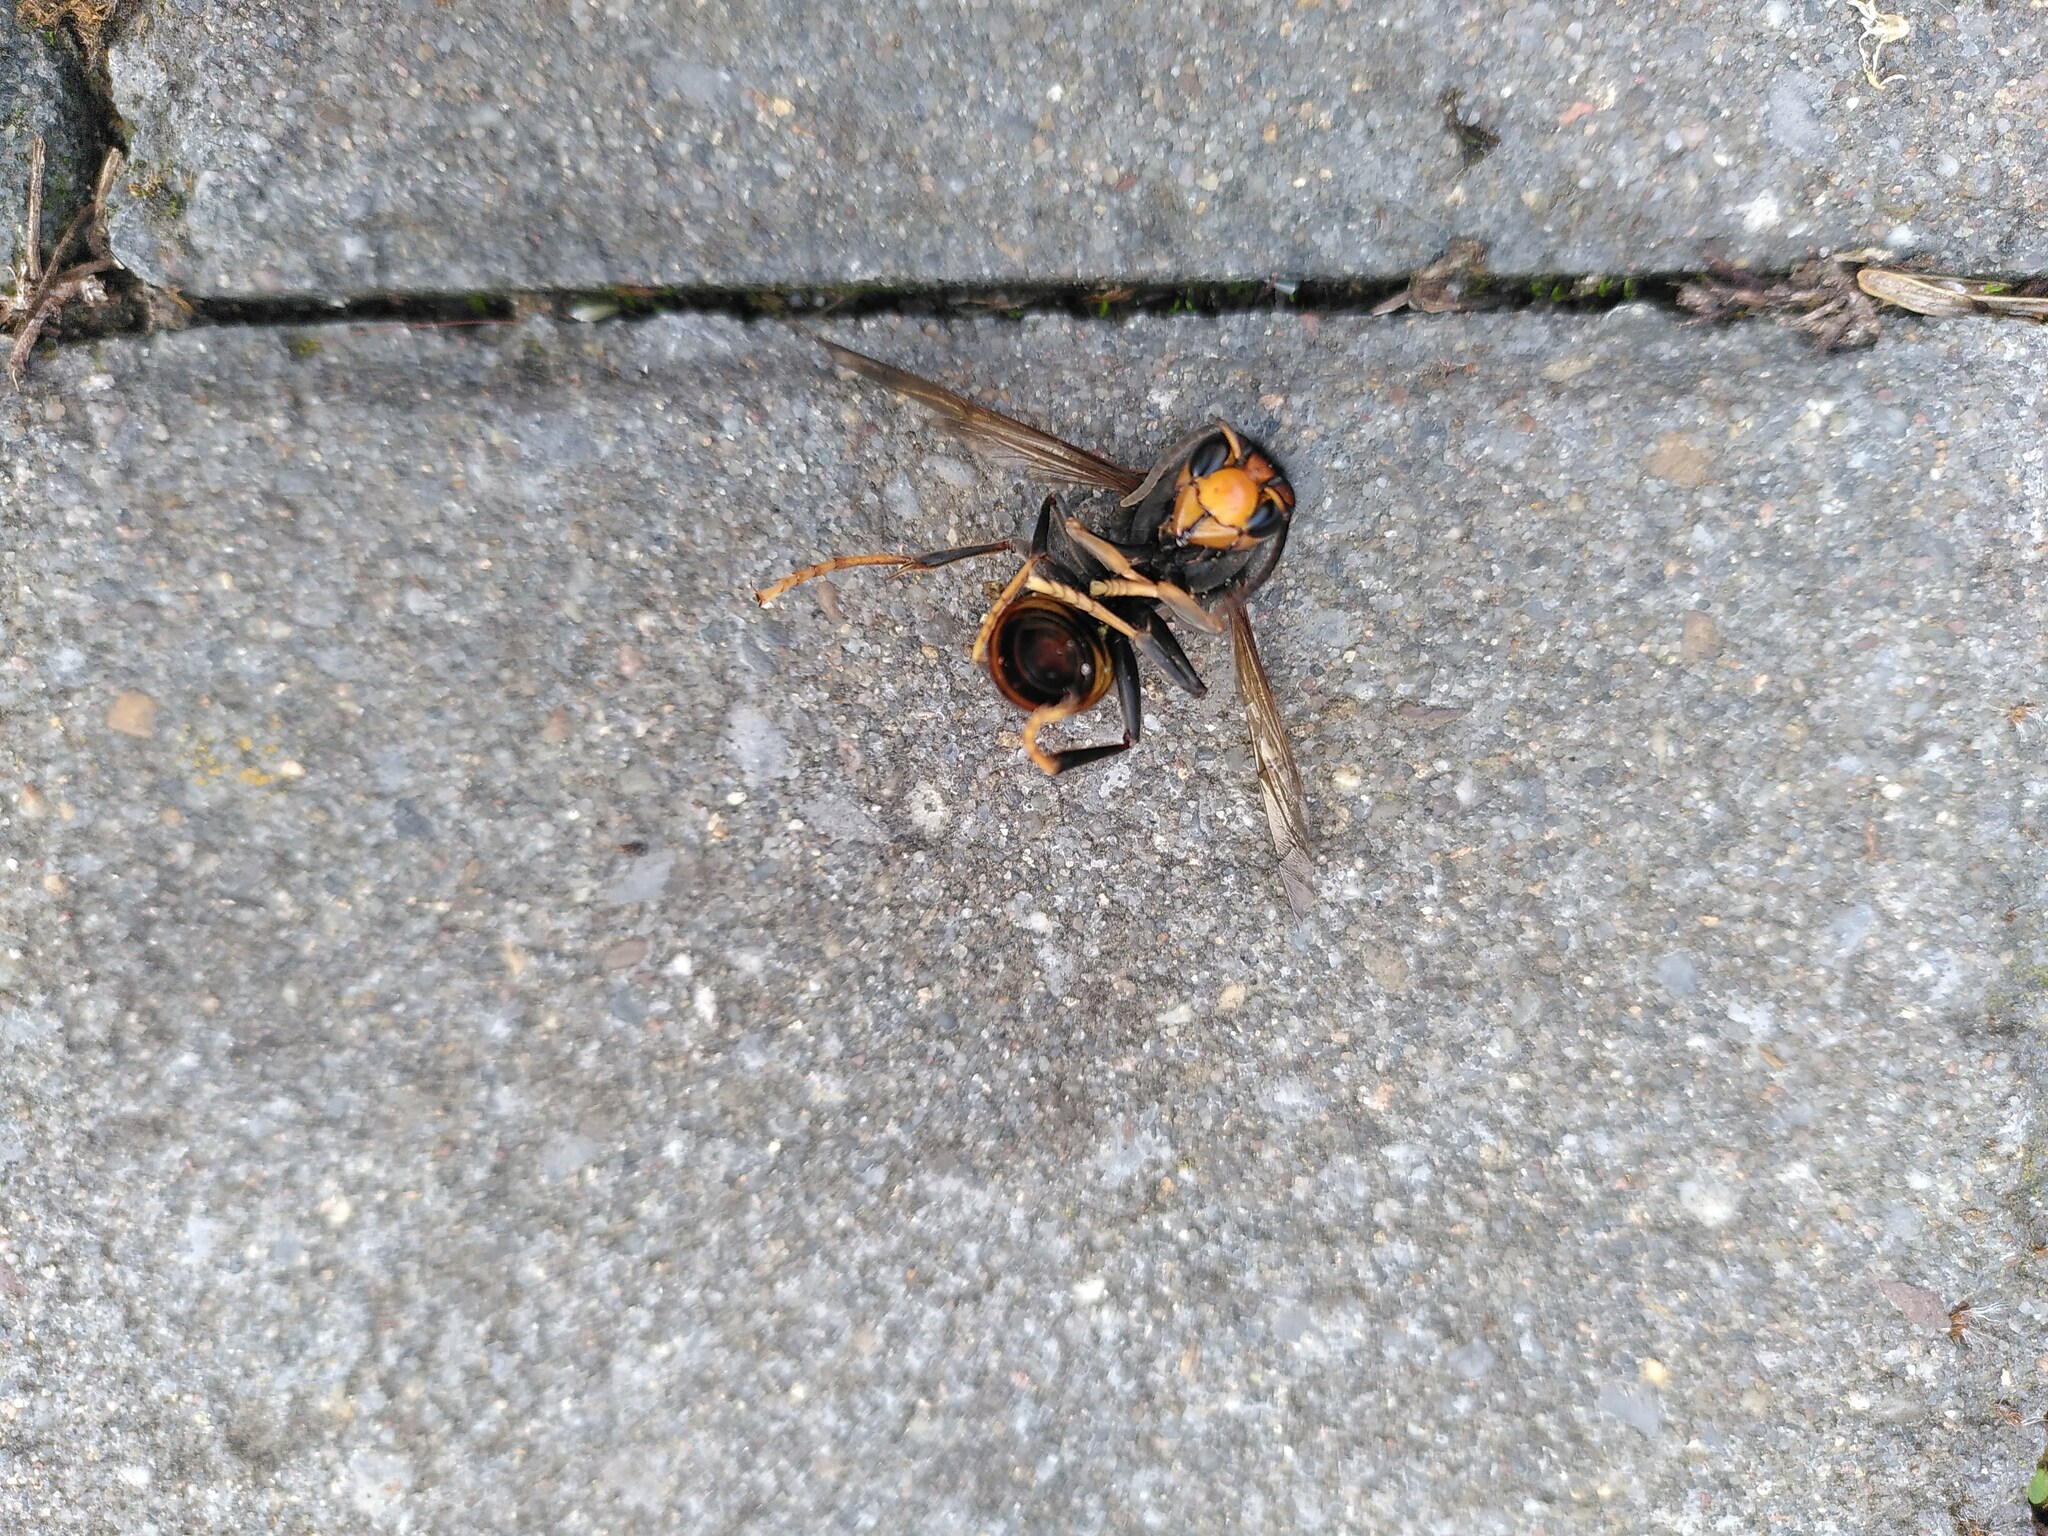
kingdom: Animalia
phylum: Arthropoda
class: Insecta
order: Hymenoptera
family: Vespidae
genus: Vespa
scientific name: Vespa velutina
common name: Asian hornet
